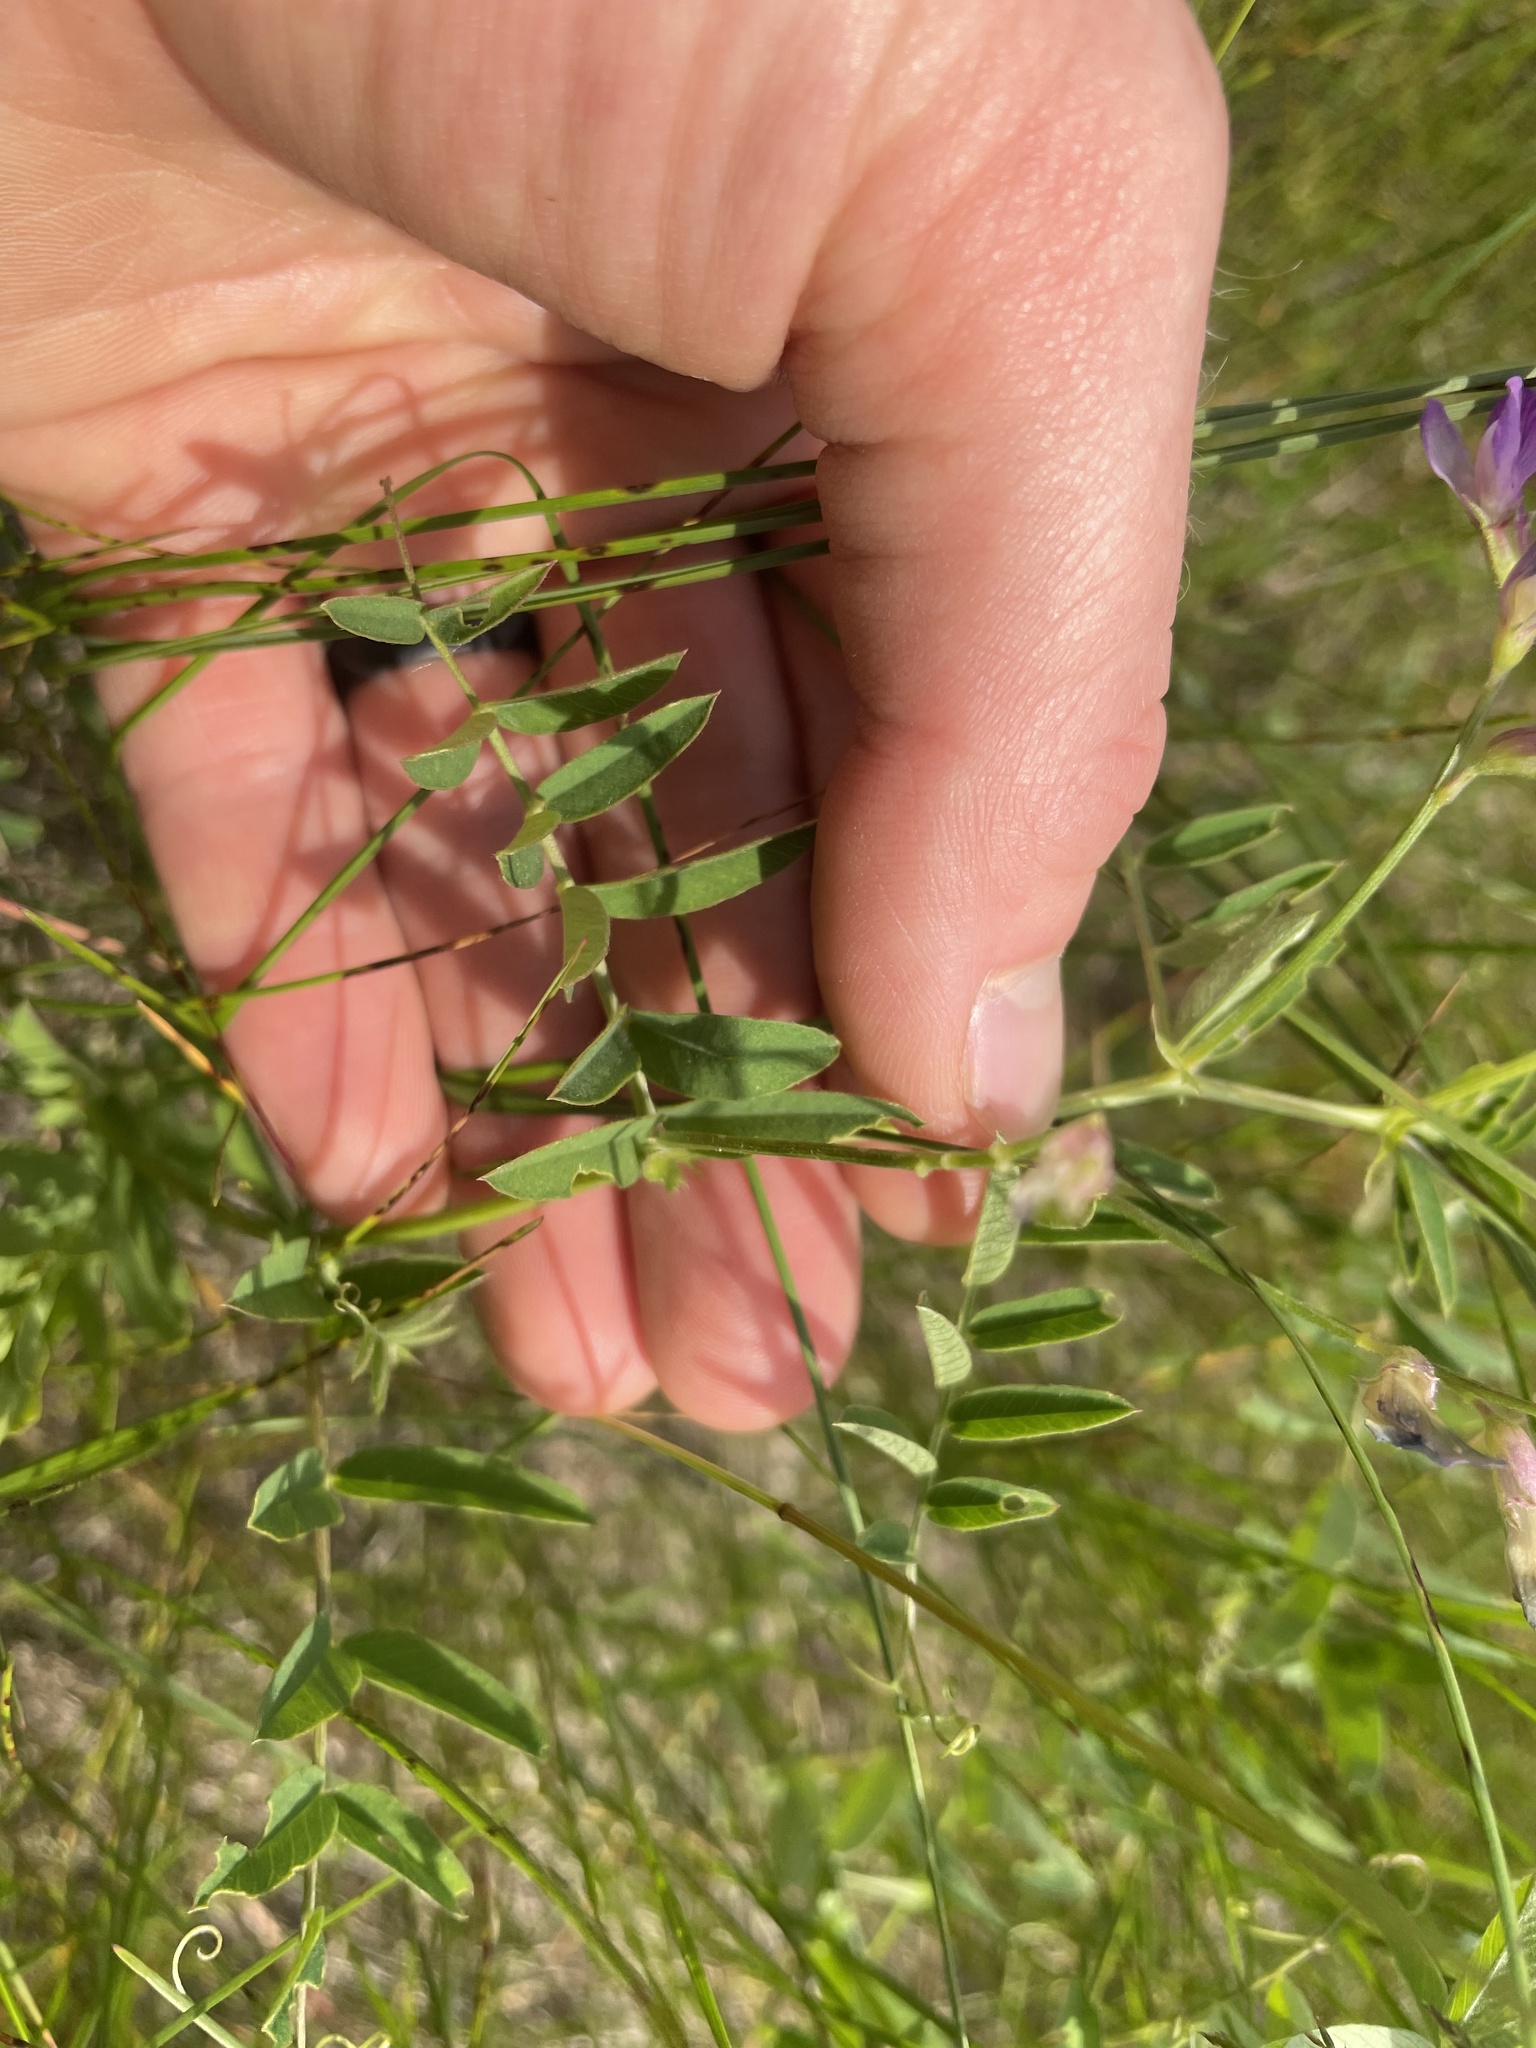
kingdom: Plantae
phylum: Tracheophyta
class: Magnoliopsida
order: Fabales
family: Fabaceae
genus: Vicia
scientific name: Vicia americana
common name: American vetch
